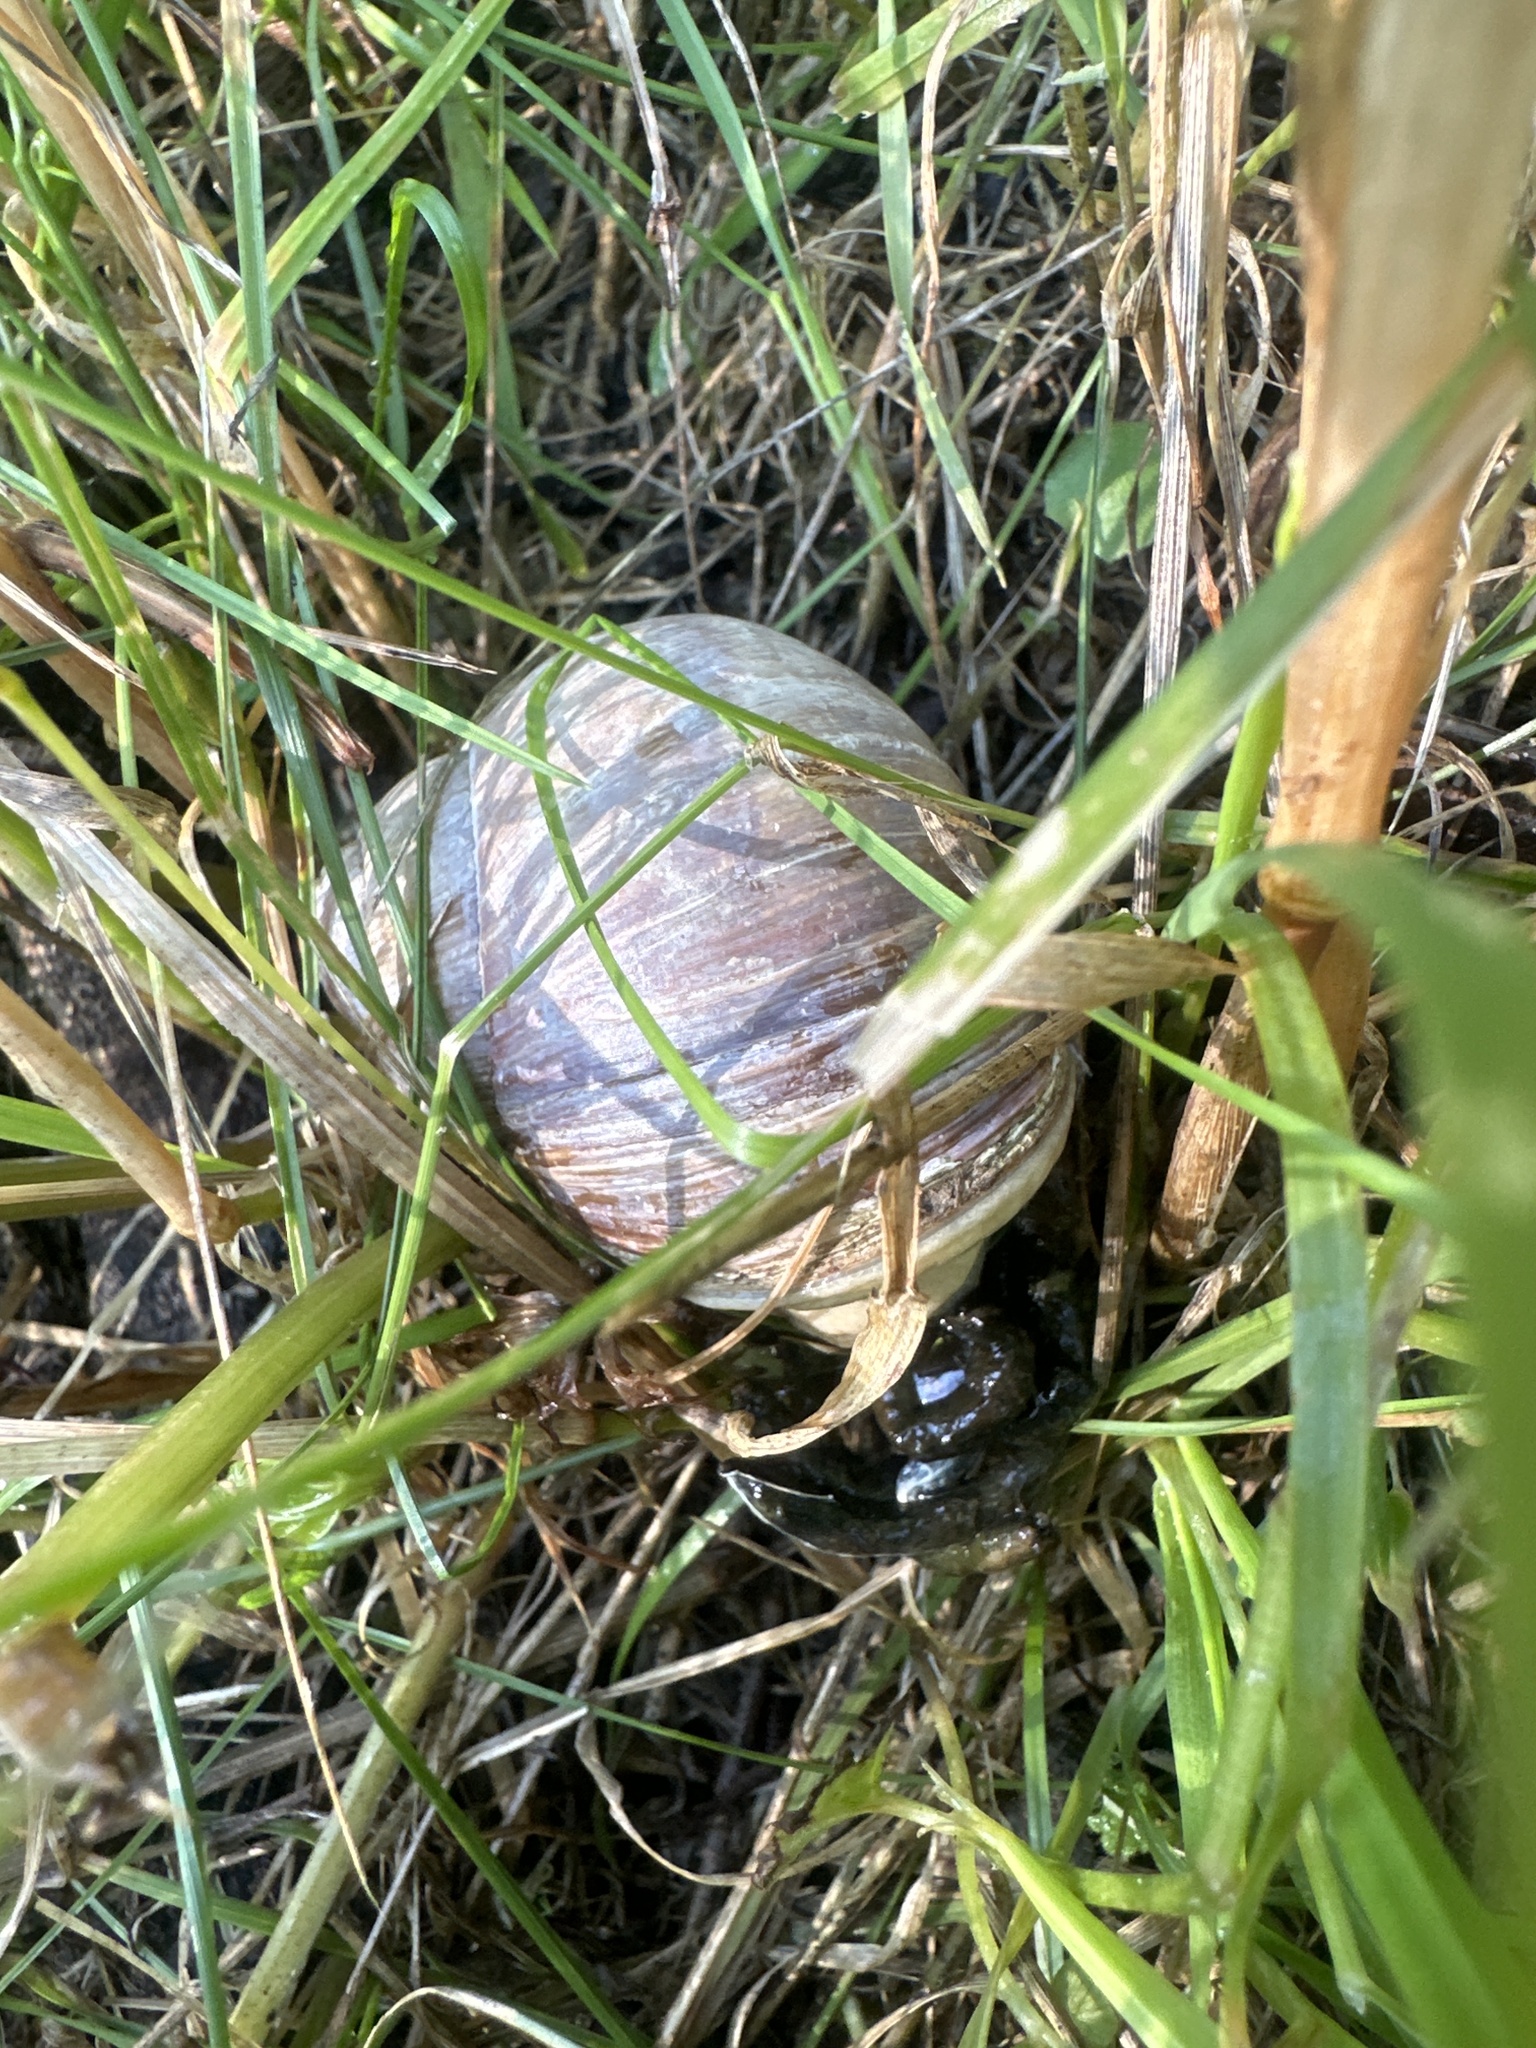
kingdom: Animalia
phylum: Mollusca
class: Gastropoda
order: Stylommatophora
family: Helicidae
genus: Helix
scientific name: Helix pomatia
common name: Roman snail
